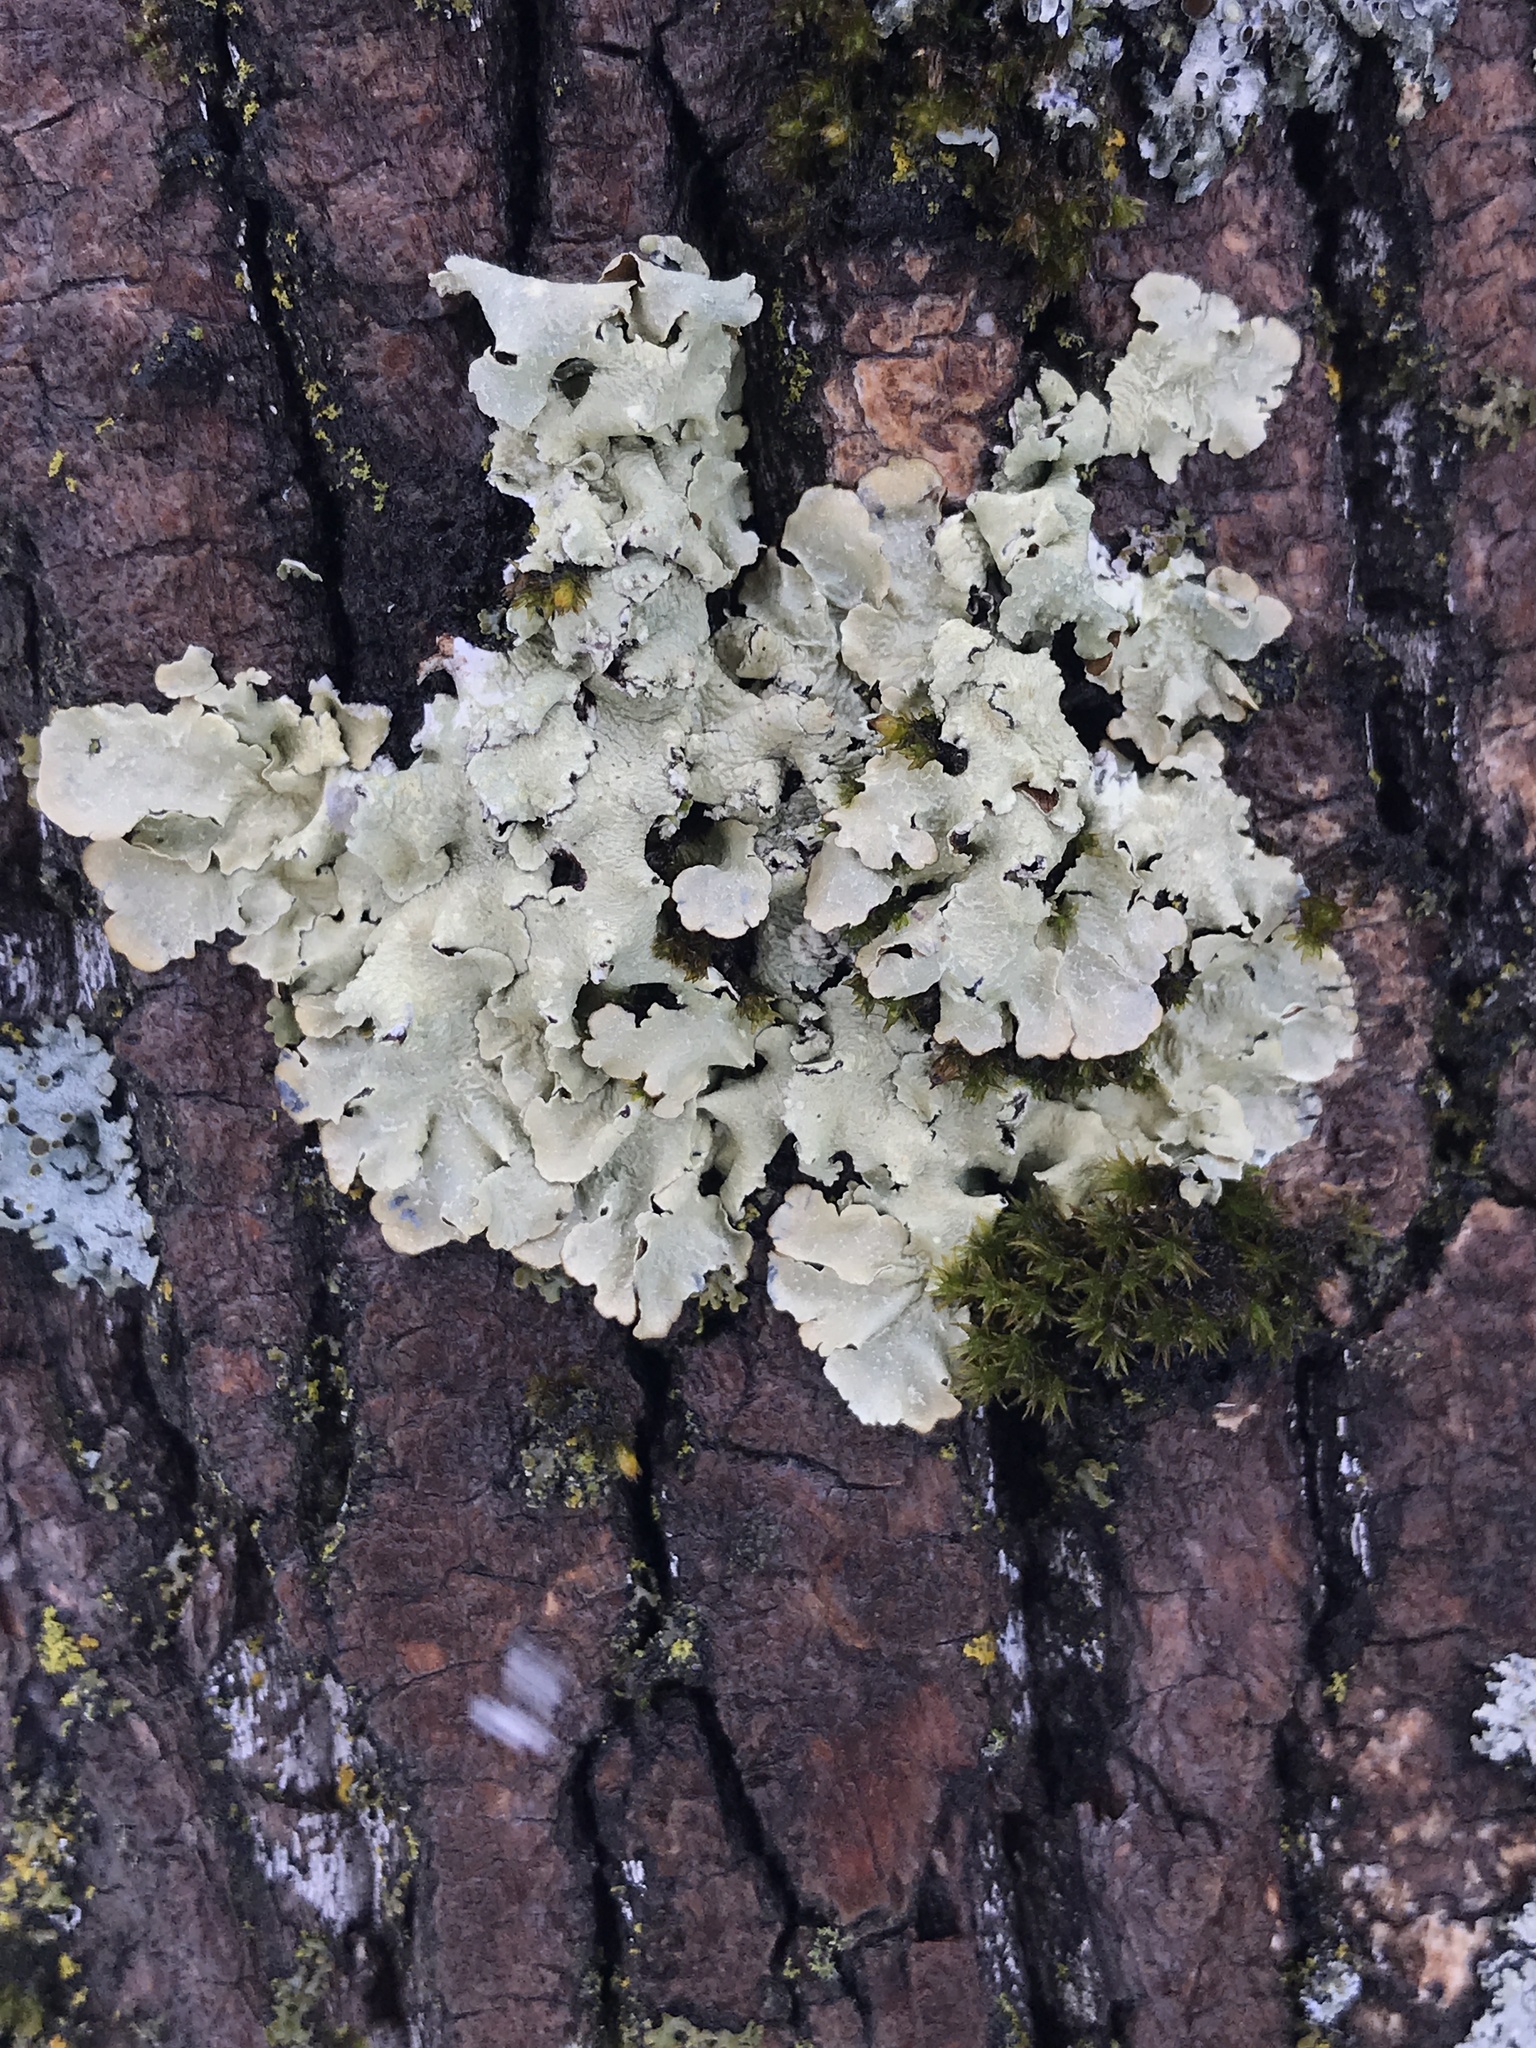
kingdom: Fungi
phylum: Ascomycota
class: Lecanoromycetes
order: Lecanorales
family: Parmeliaceae
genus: Flavopunctelia
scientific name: Flavopunctelia flaventior
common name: Speckled greenshield
